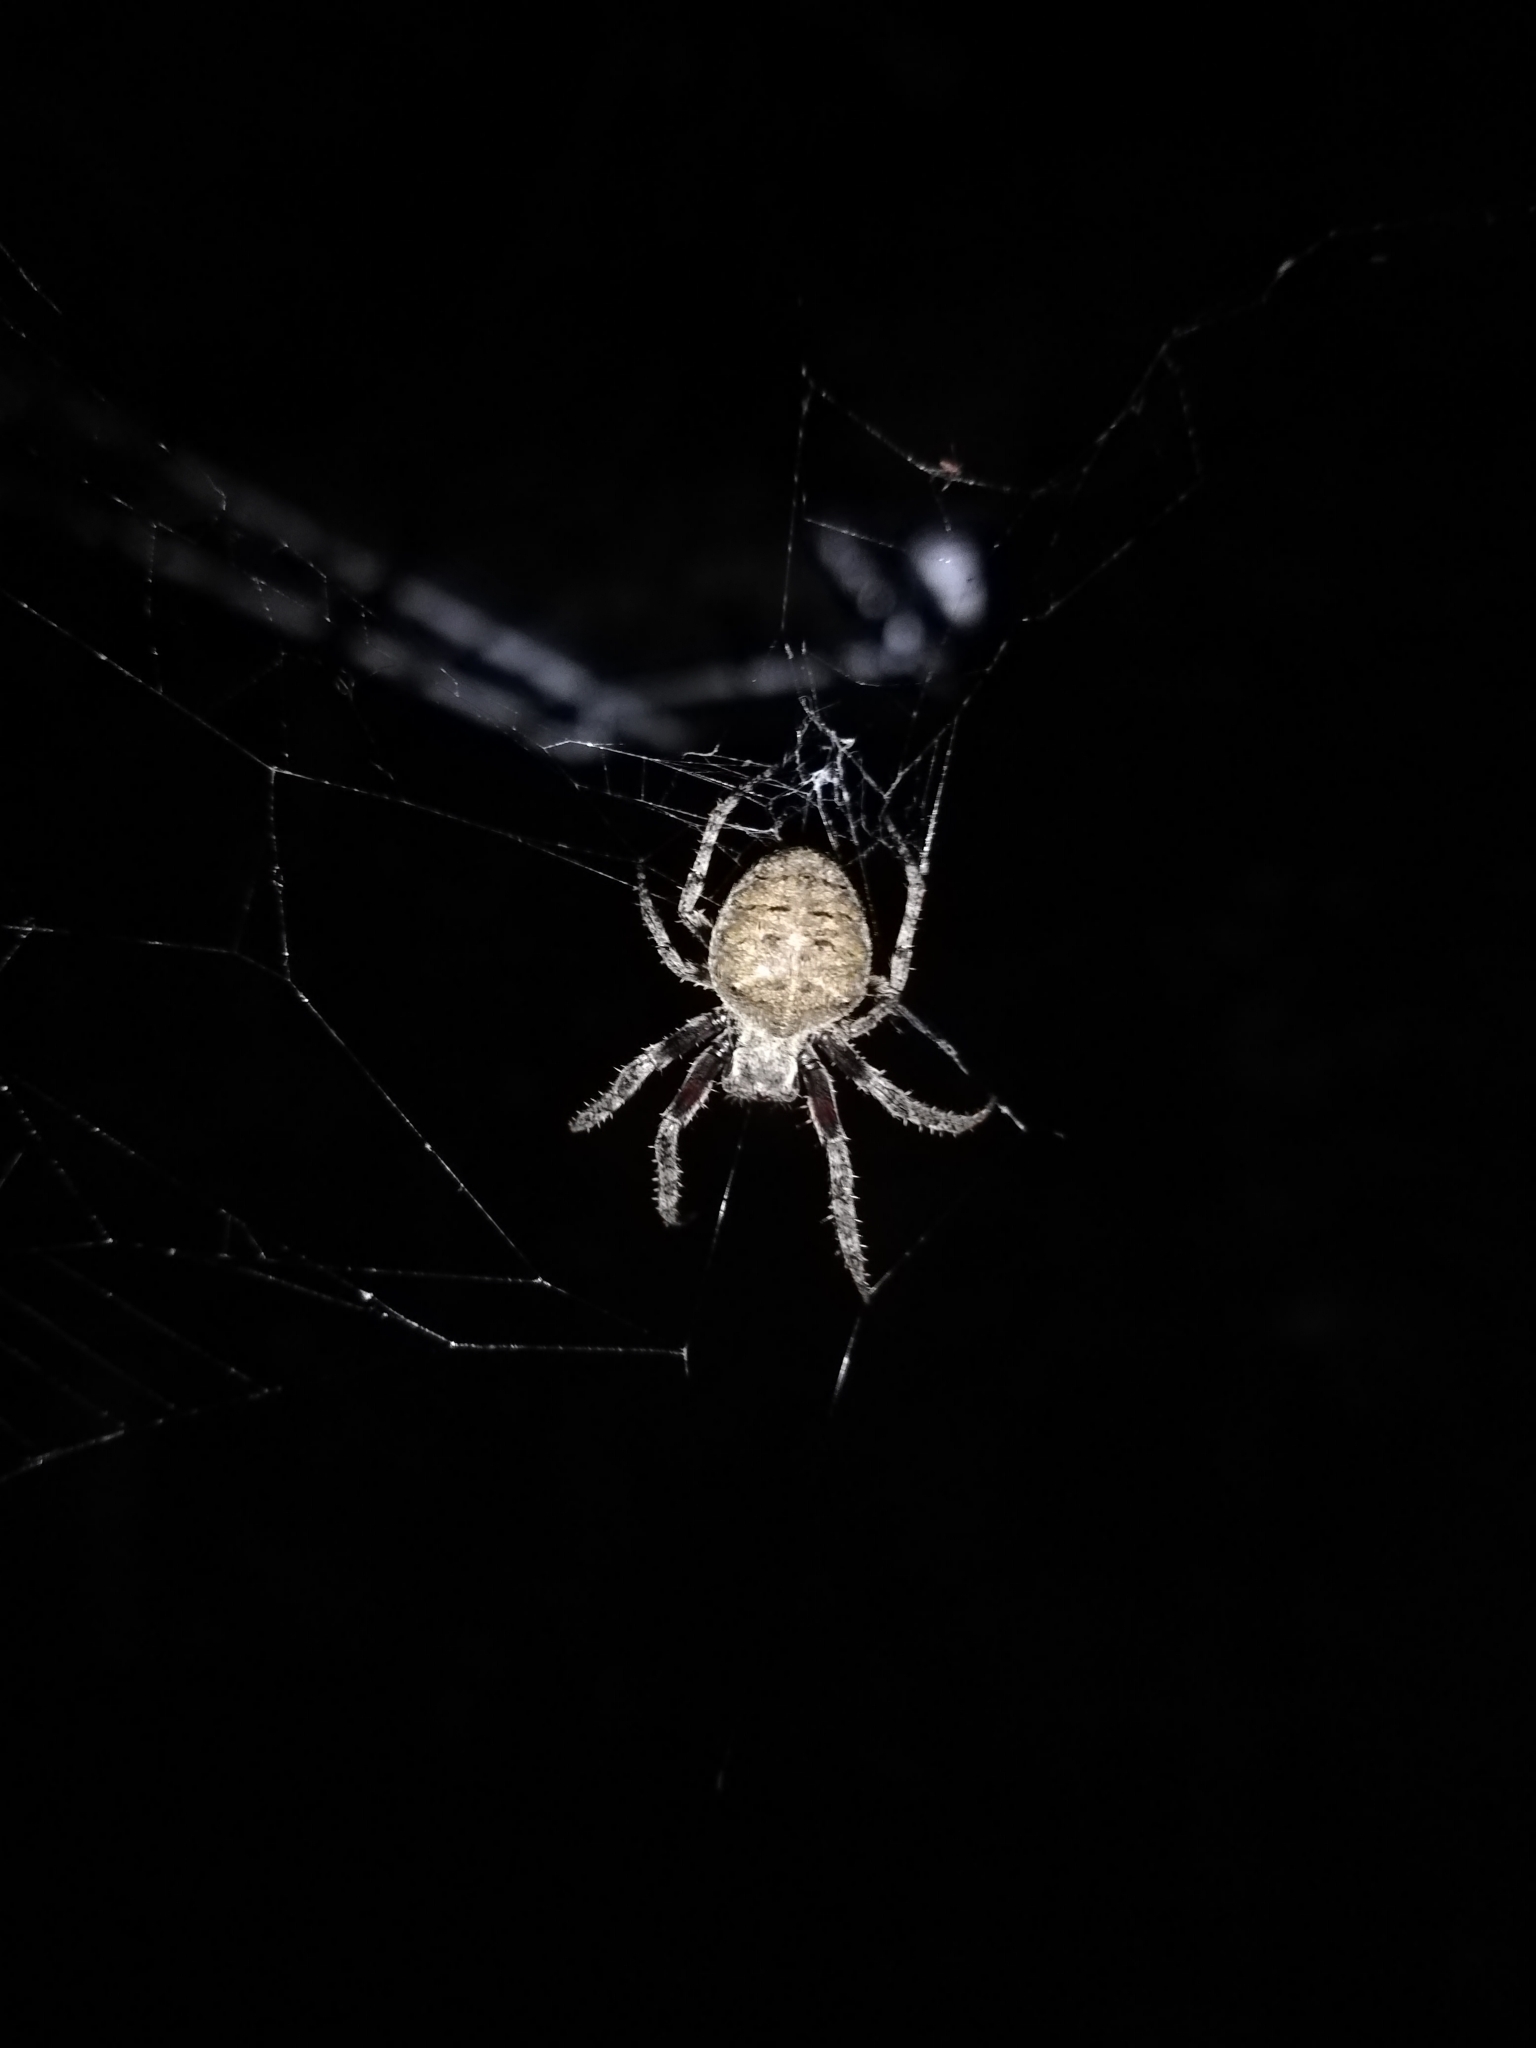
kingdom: Animalia
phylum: Arthropoda
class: Arachnida
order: Araneae
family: Araneidae
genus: Parawixia
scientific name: Parawixia audax
